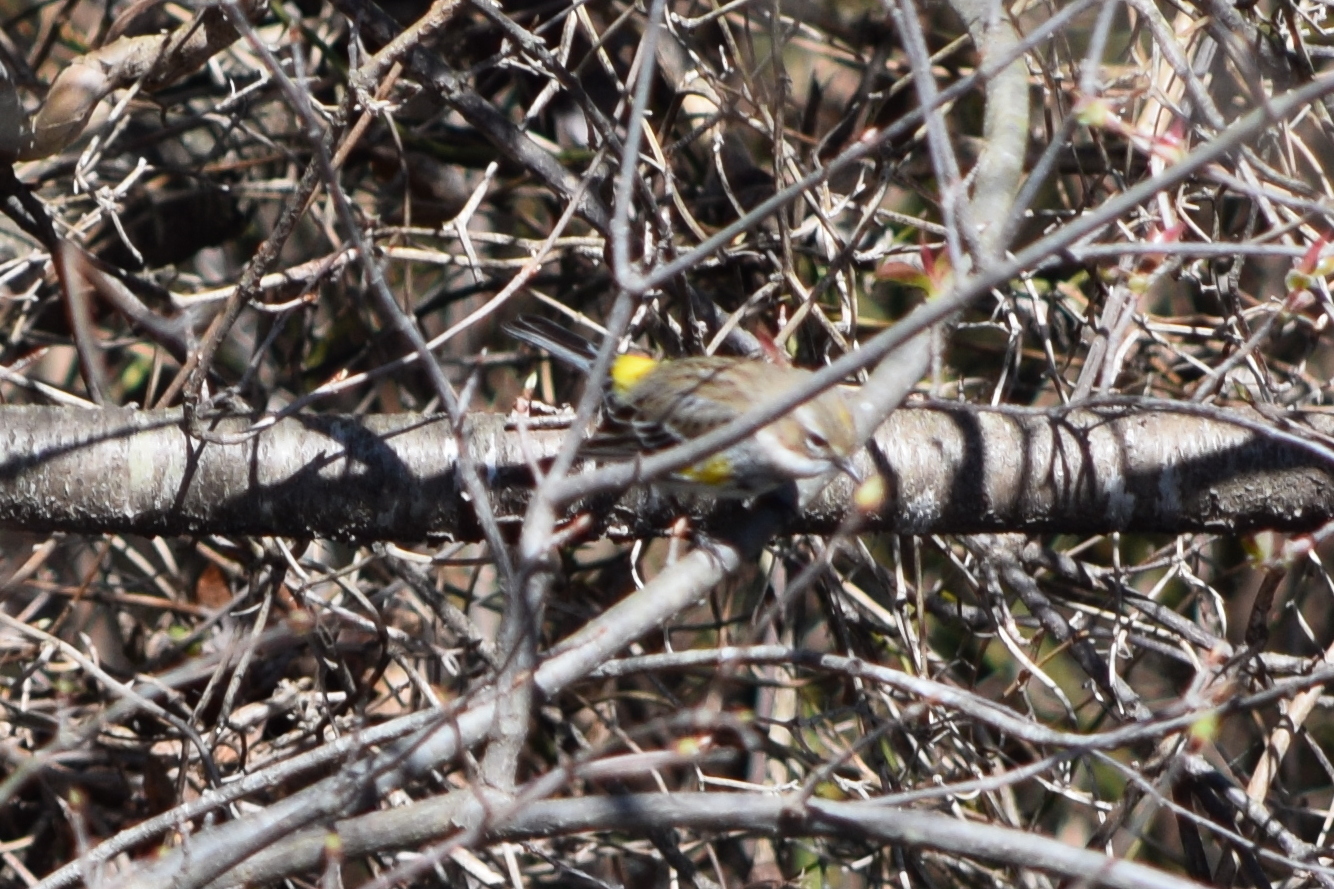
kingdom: Animalia
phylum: Chordata
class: Aves
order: Passeriformes
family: Parulidae
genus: Setophaga
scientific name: Setophaga coronata
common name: Myrtle warbler
